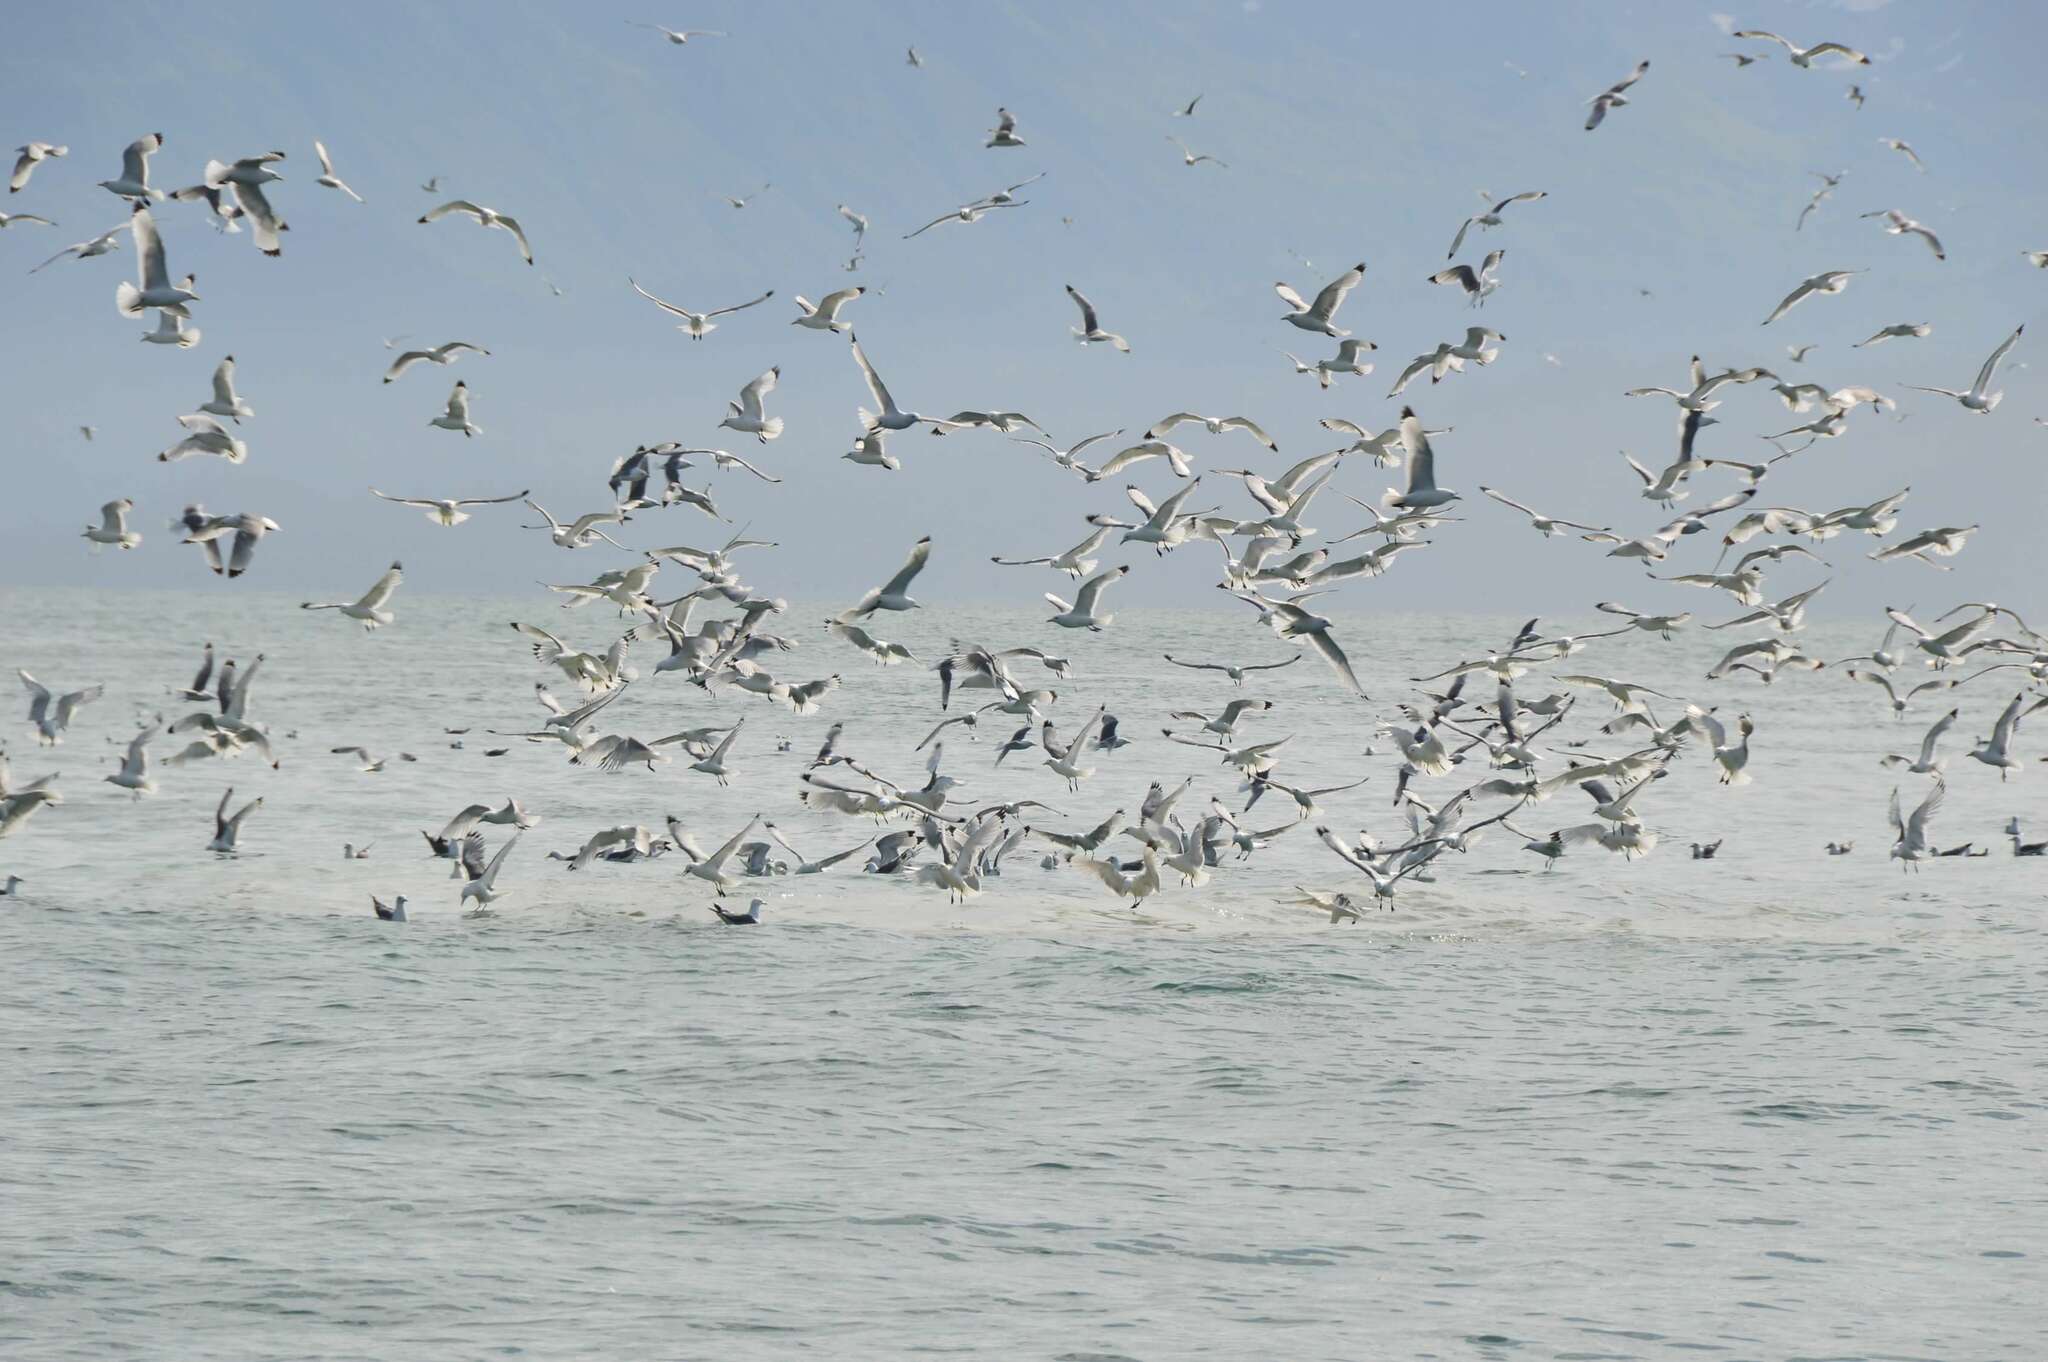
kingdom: Animalia
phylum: Chordata
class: Aves
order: Charadriiformes
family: Laridae
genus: Rissa
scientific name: Rissa tridactyla
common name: Black-legged kittiwake
